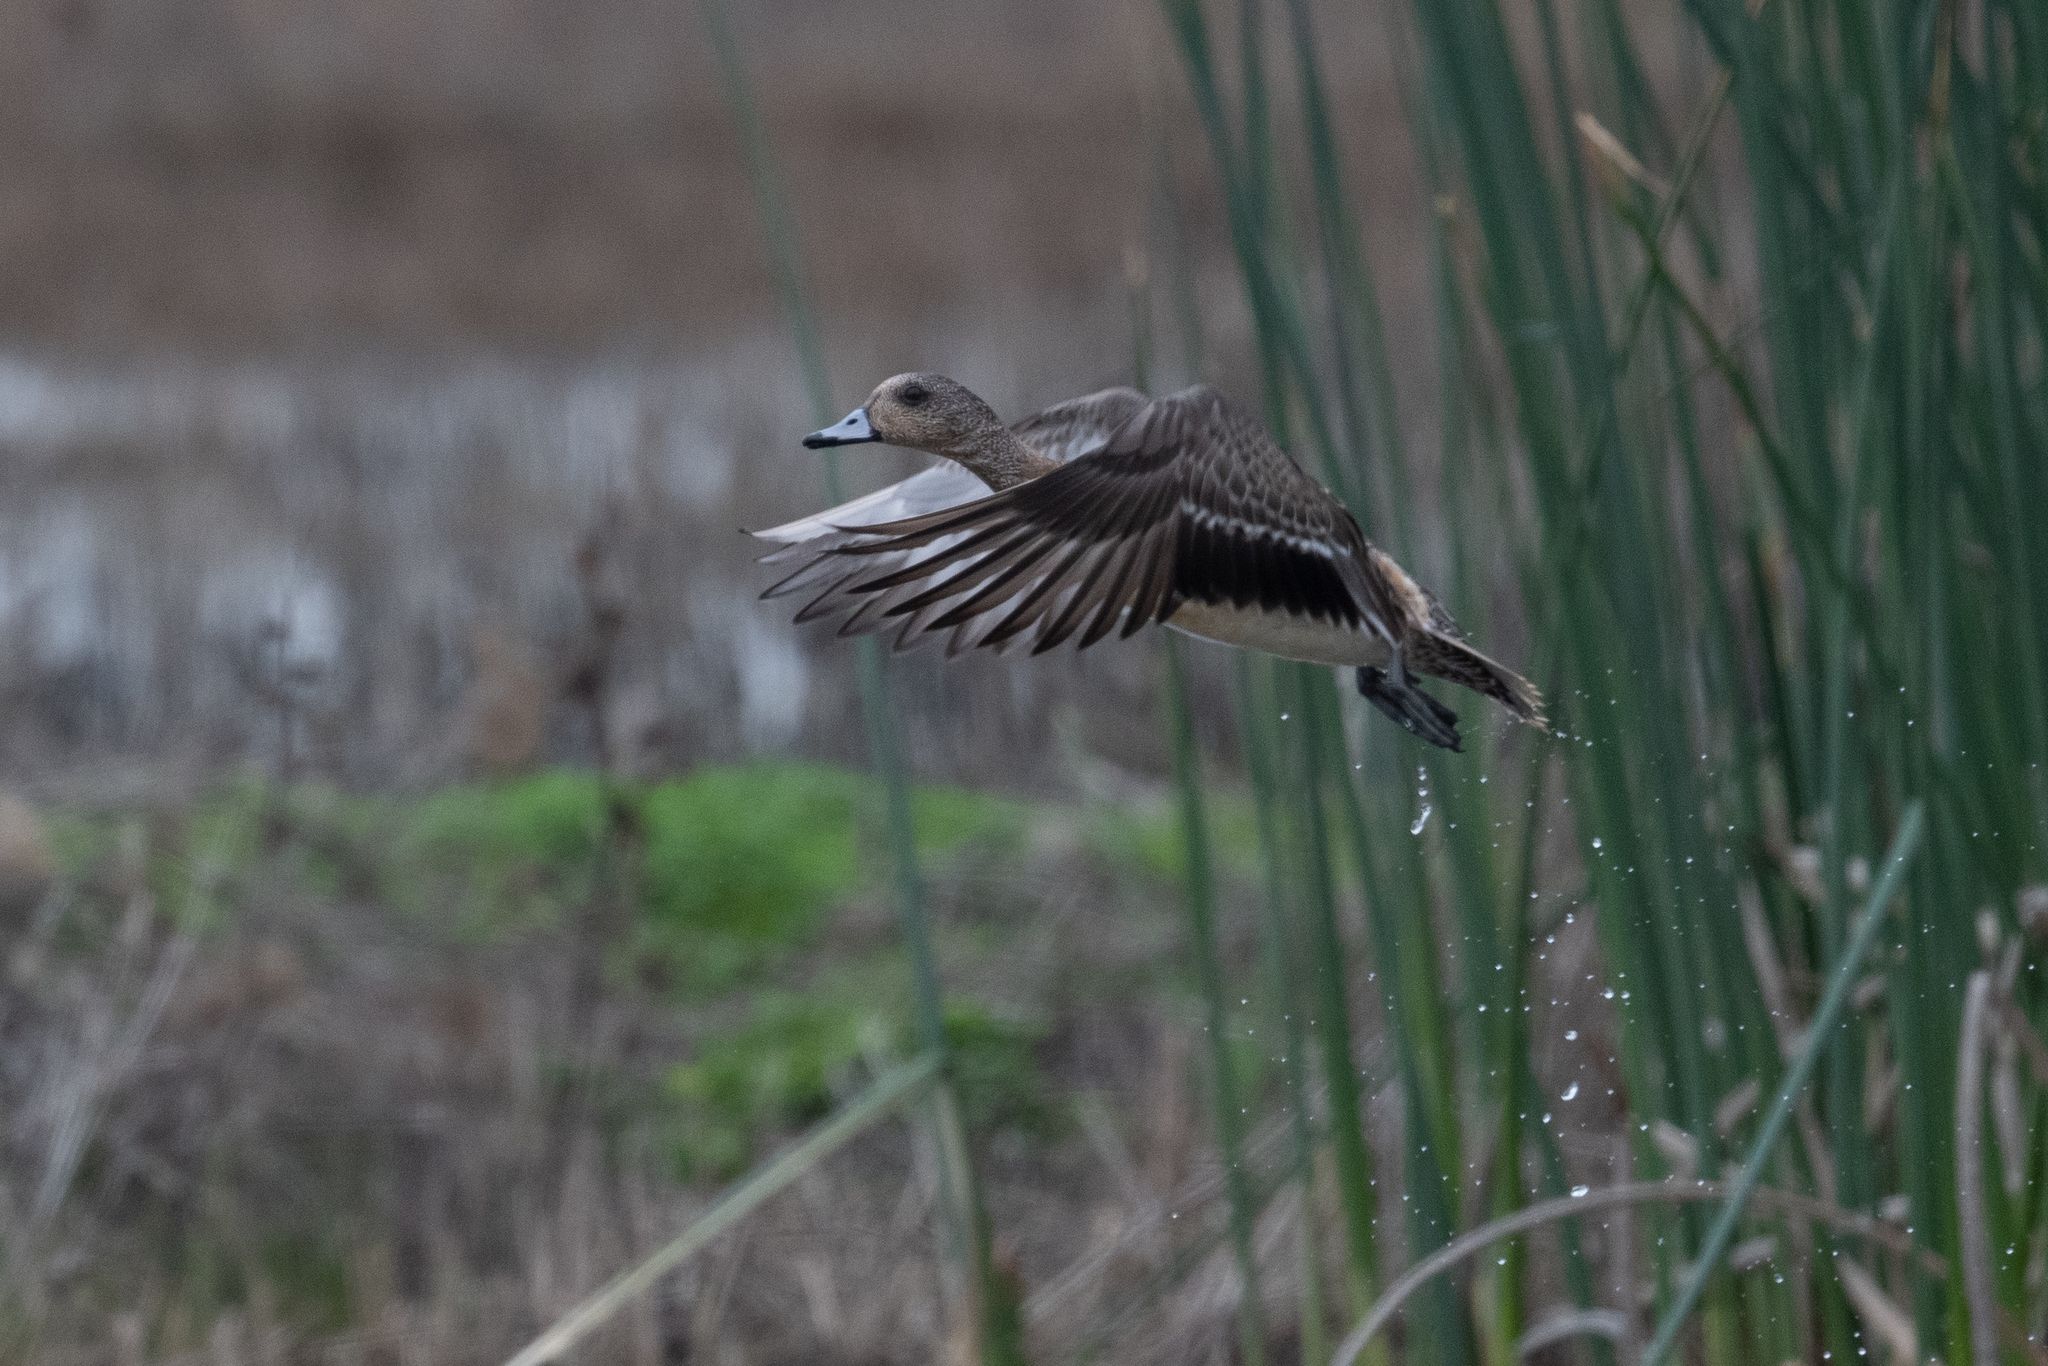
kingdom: Animalia
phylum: Chordata
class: Aves
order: Anseriformes
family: Anatidae
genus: Mareca
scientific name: Mareca americana
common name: American wigeon
